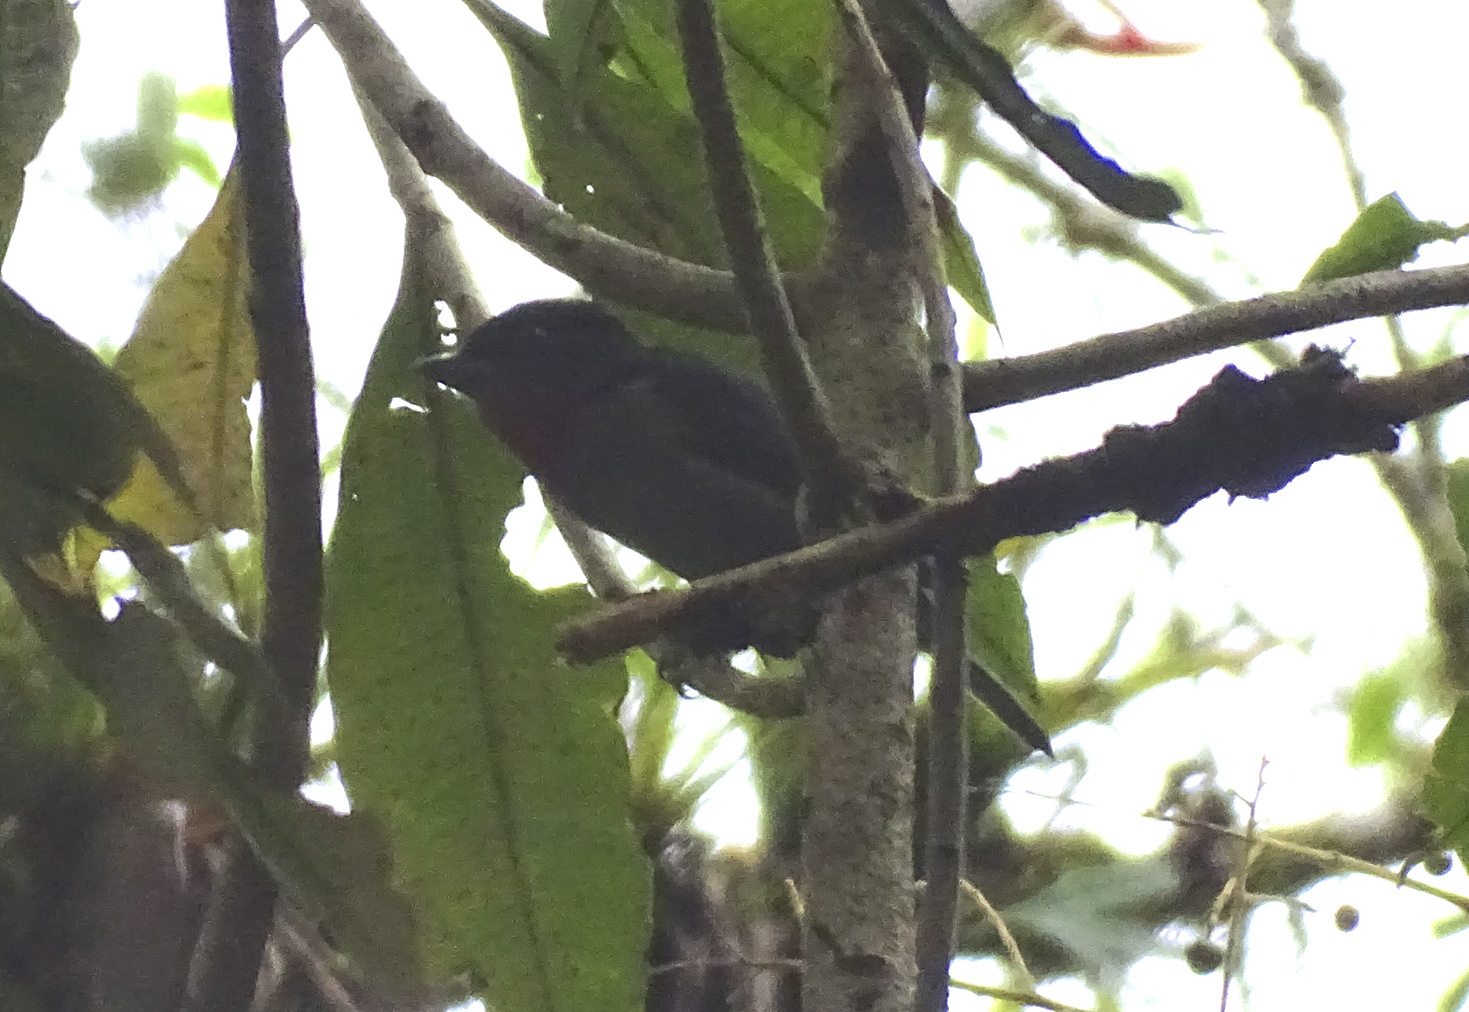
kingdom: Animalia
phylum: Chordata
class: Aves
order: Passeriformes
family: Cotingidae
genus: Pachyramphus
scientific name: Pachyramphus aglaiae
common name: Rose-throated becard
